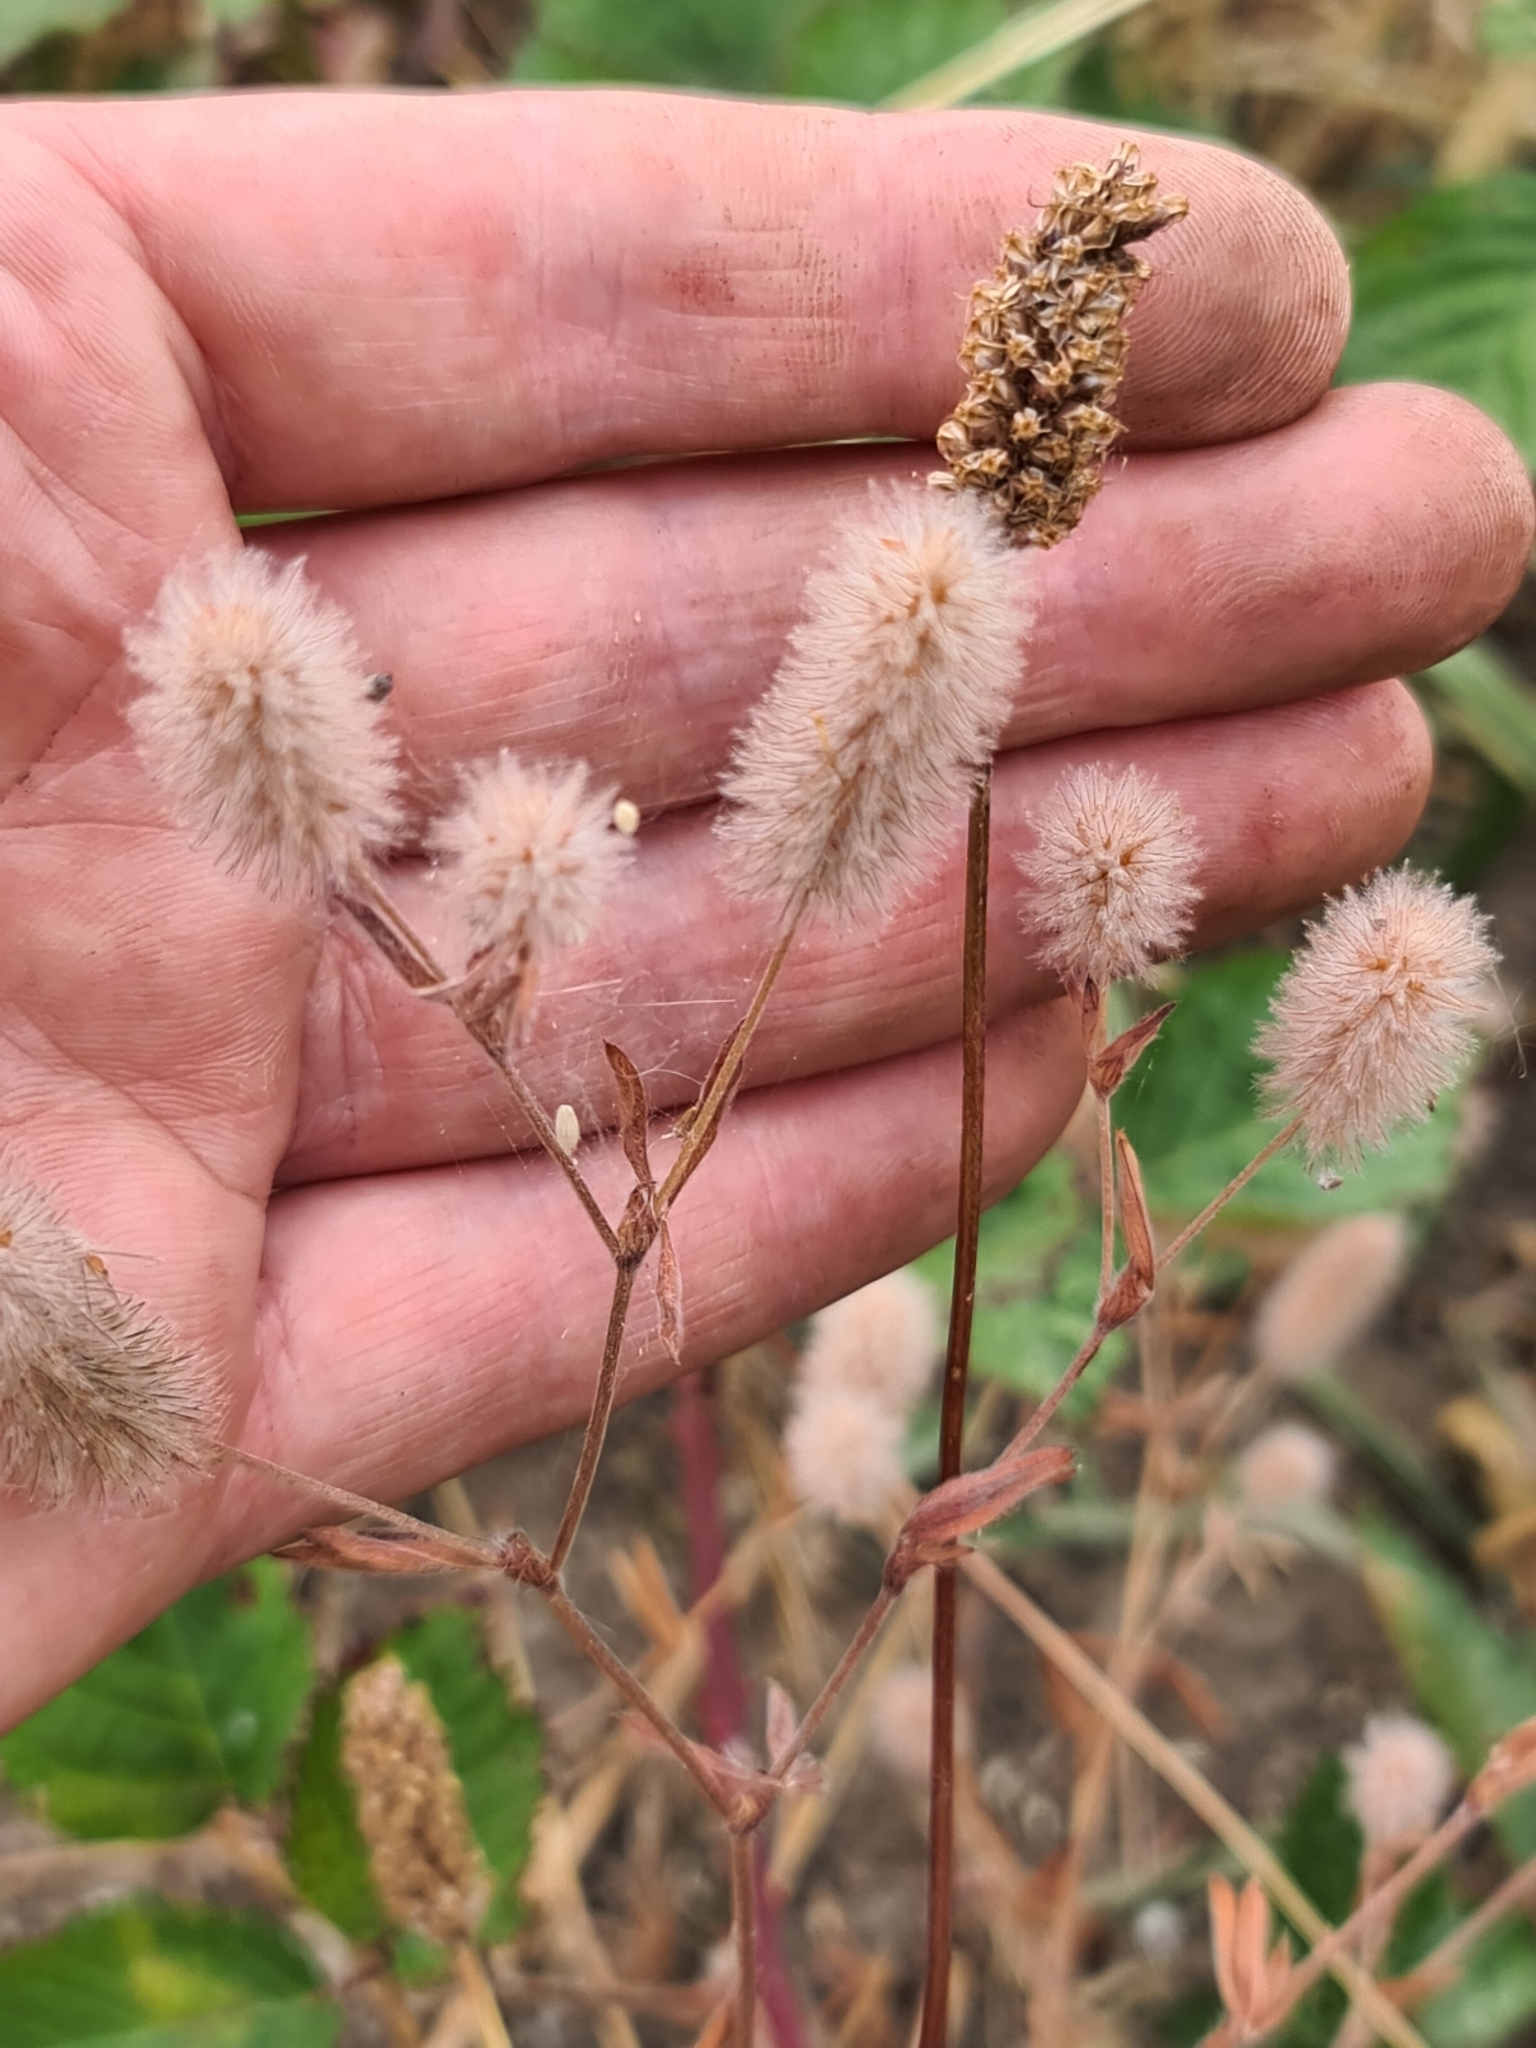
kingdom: Plantae
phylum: Tracheophyta
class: Magnoliopsida
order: Fabales
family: Fabaceae
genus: Trifolium
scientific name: Trifolium arvense
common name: Hare's-foot clover
